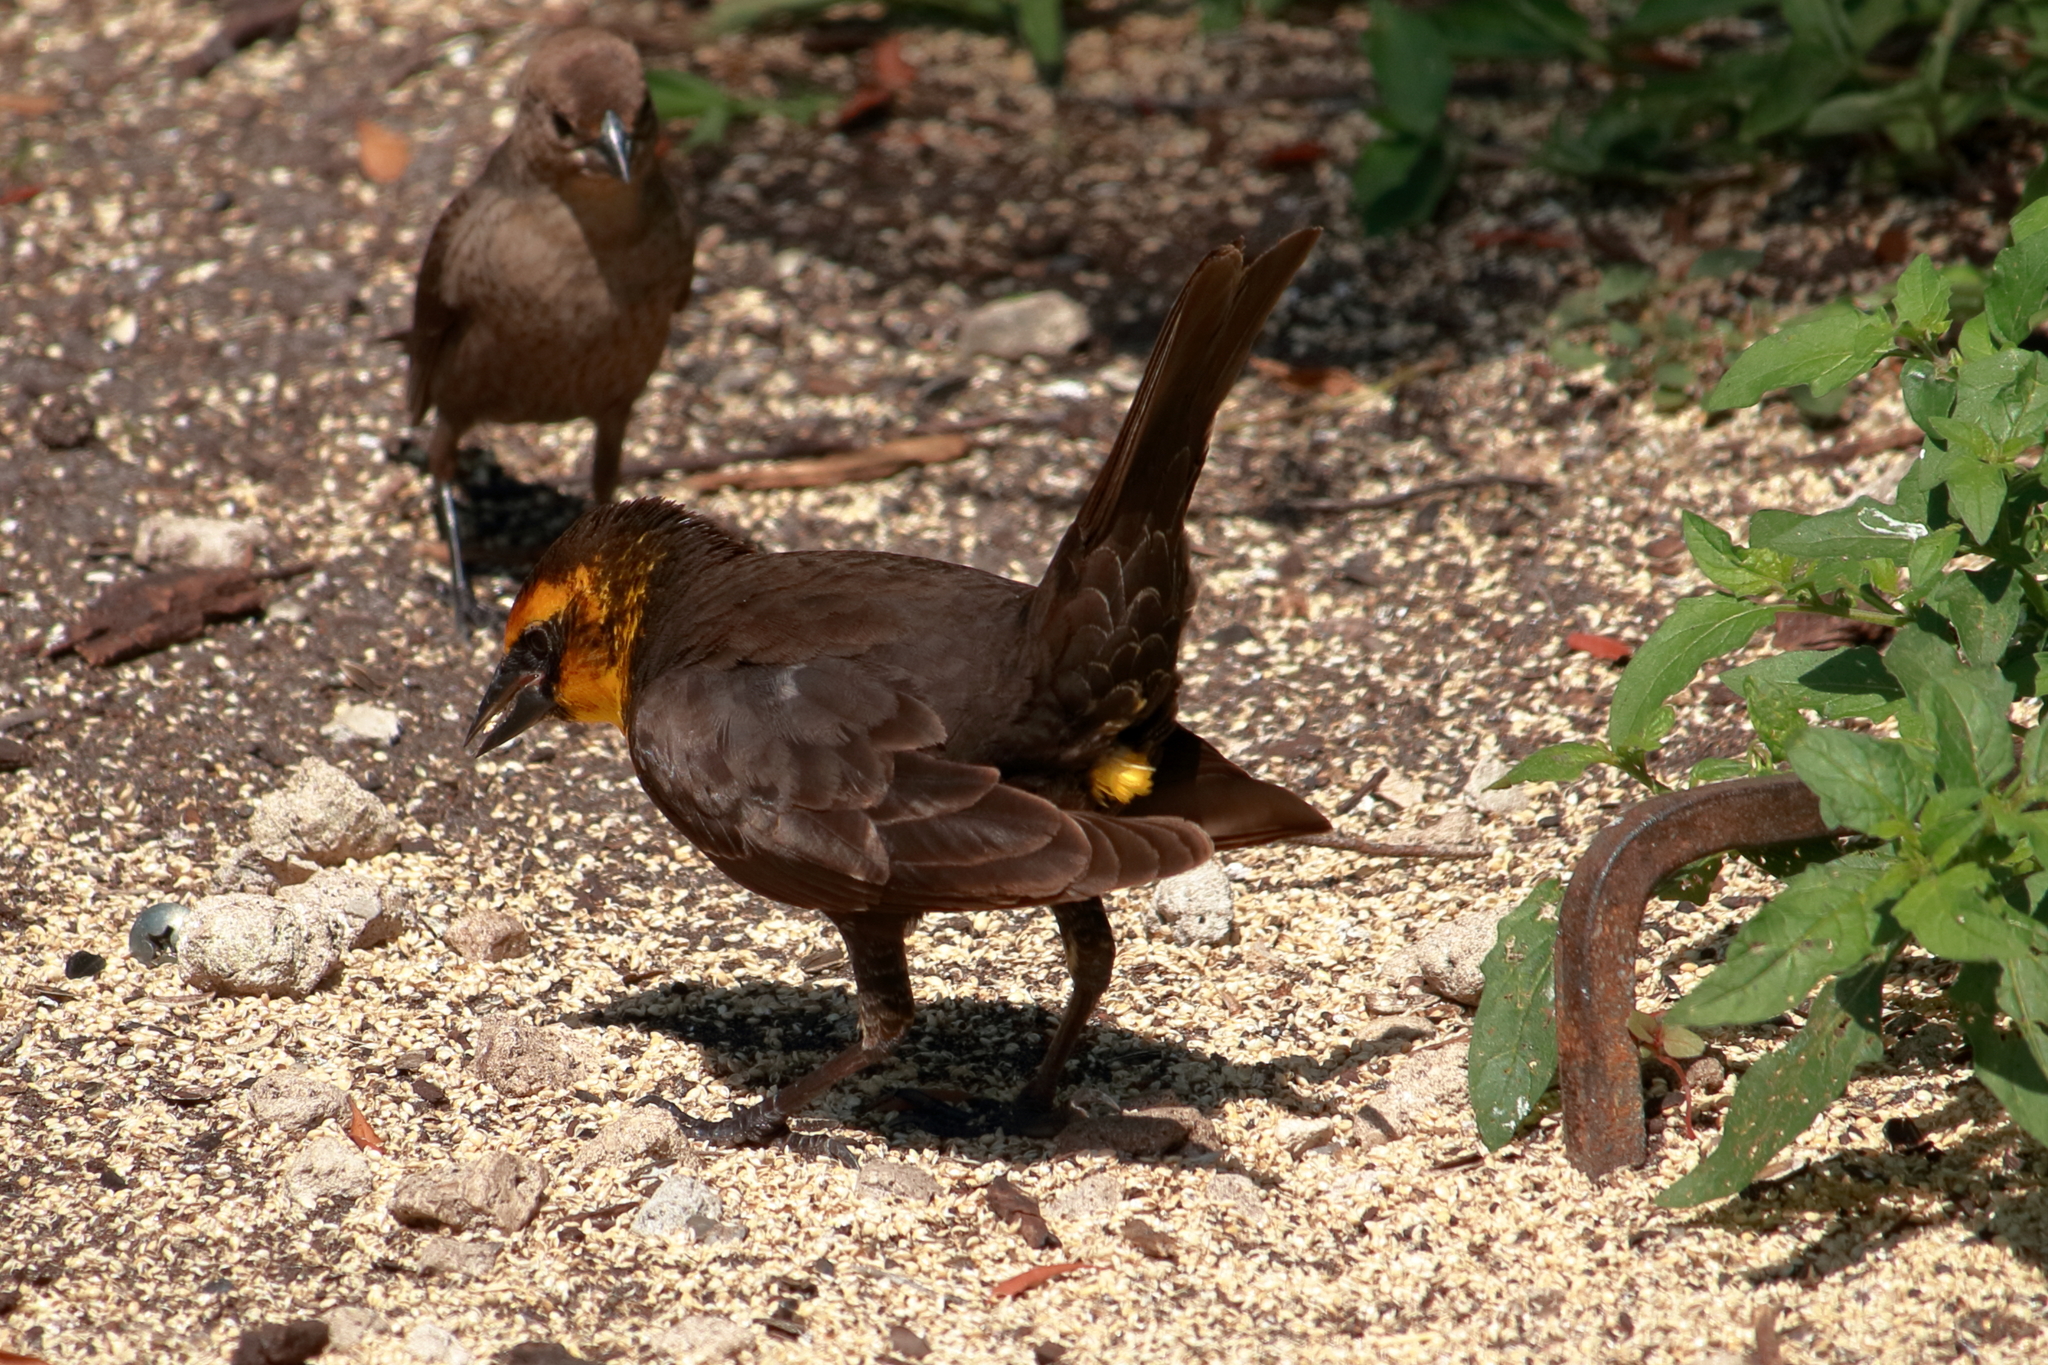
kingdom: Animalia
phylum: Chordata
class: Aves
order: Passeriformes
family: Icteridae
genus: Xanthocephalus
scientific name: Xanthocephalus xanthocephalus
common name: Yellow-headed blackbird
